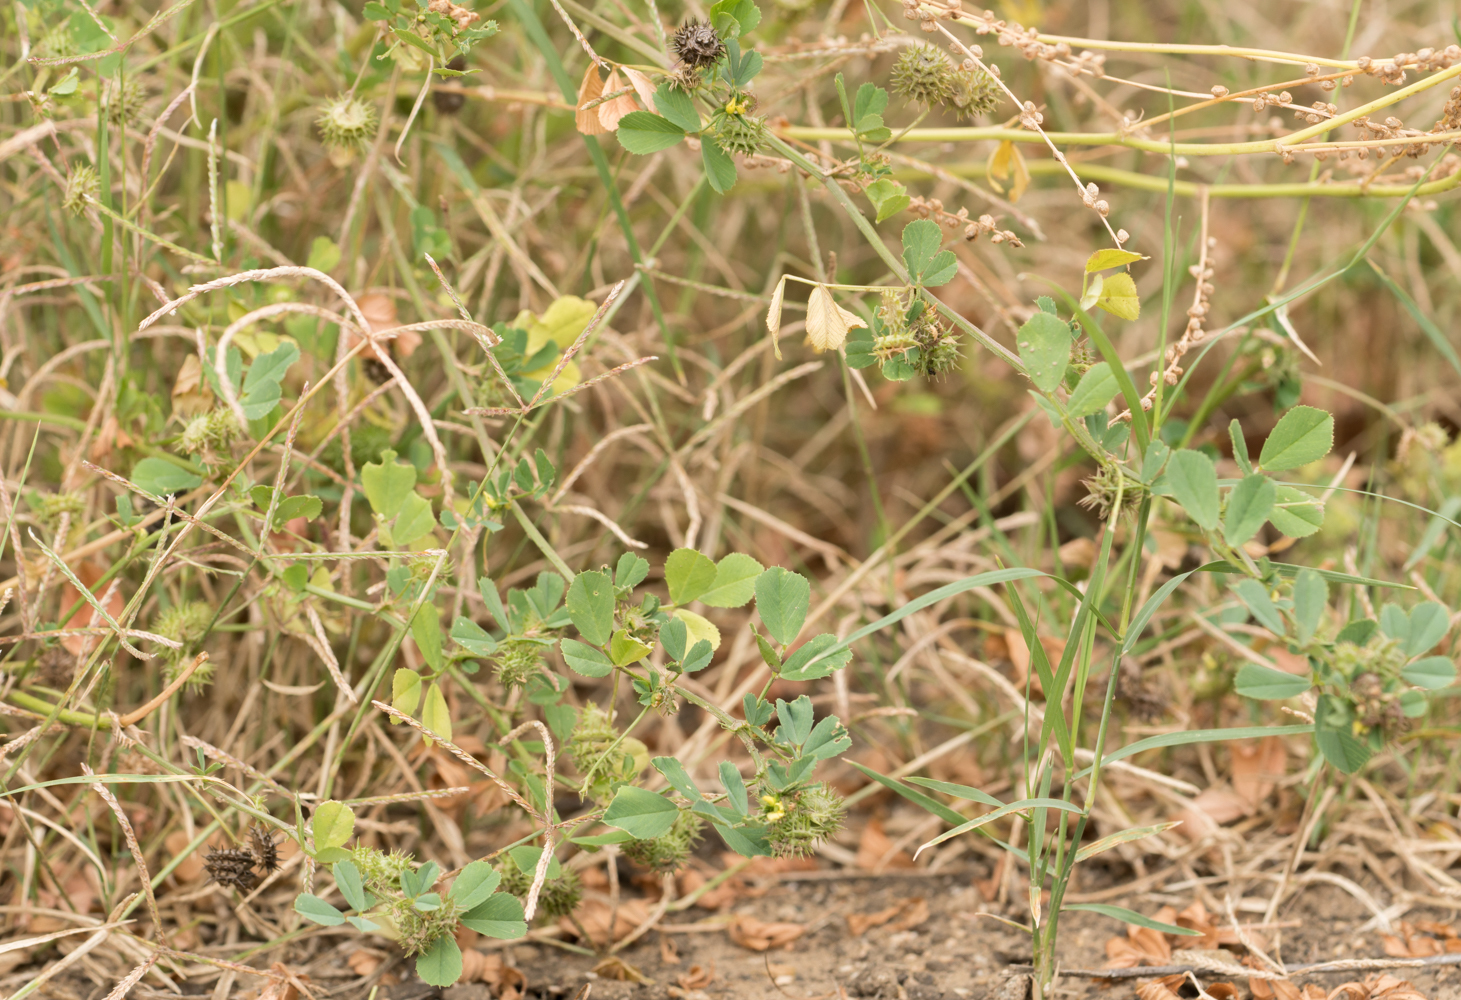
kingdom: Plantae
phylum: Tracheophyta
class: Magnoliopsida
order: Fabales
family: Fabaceae
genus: Medicago
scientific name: Medicago polymorpha
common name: Burclover
